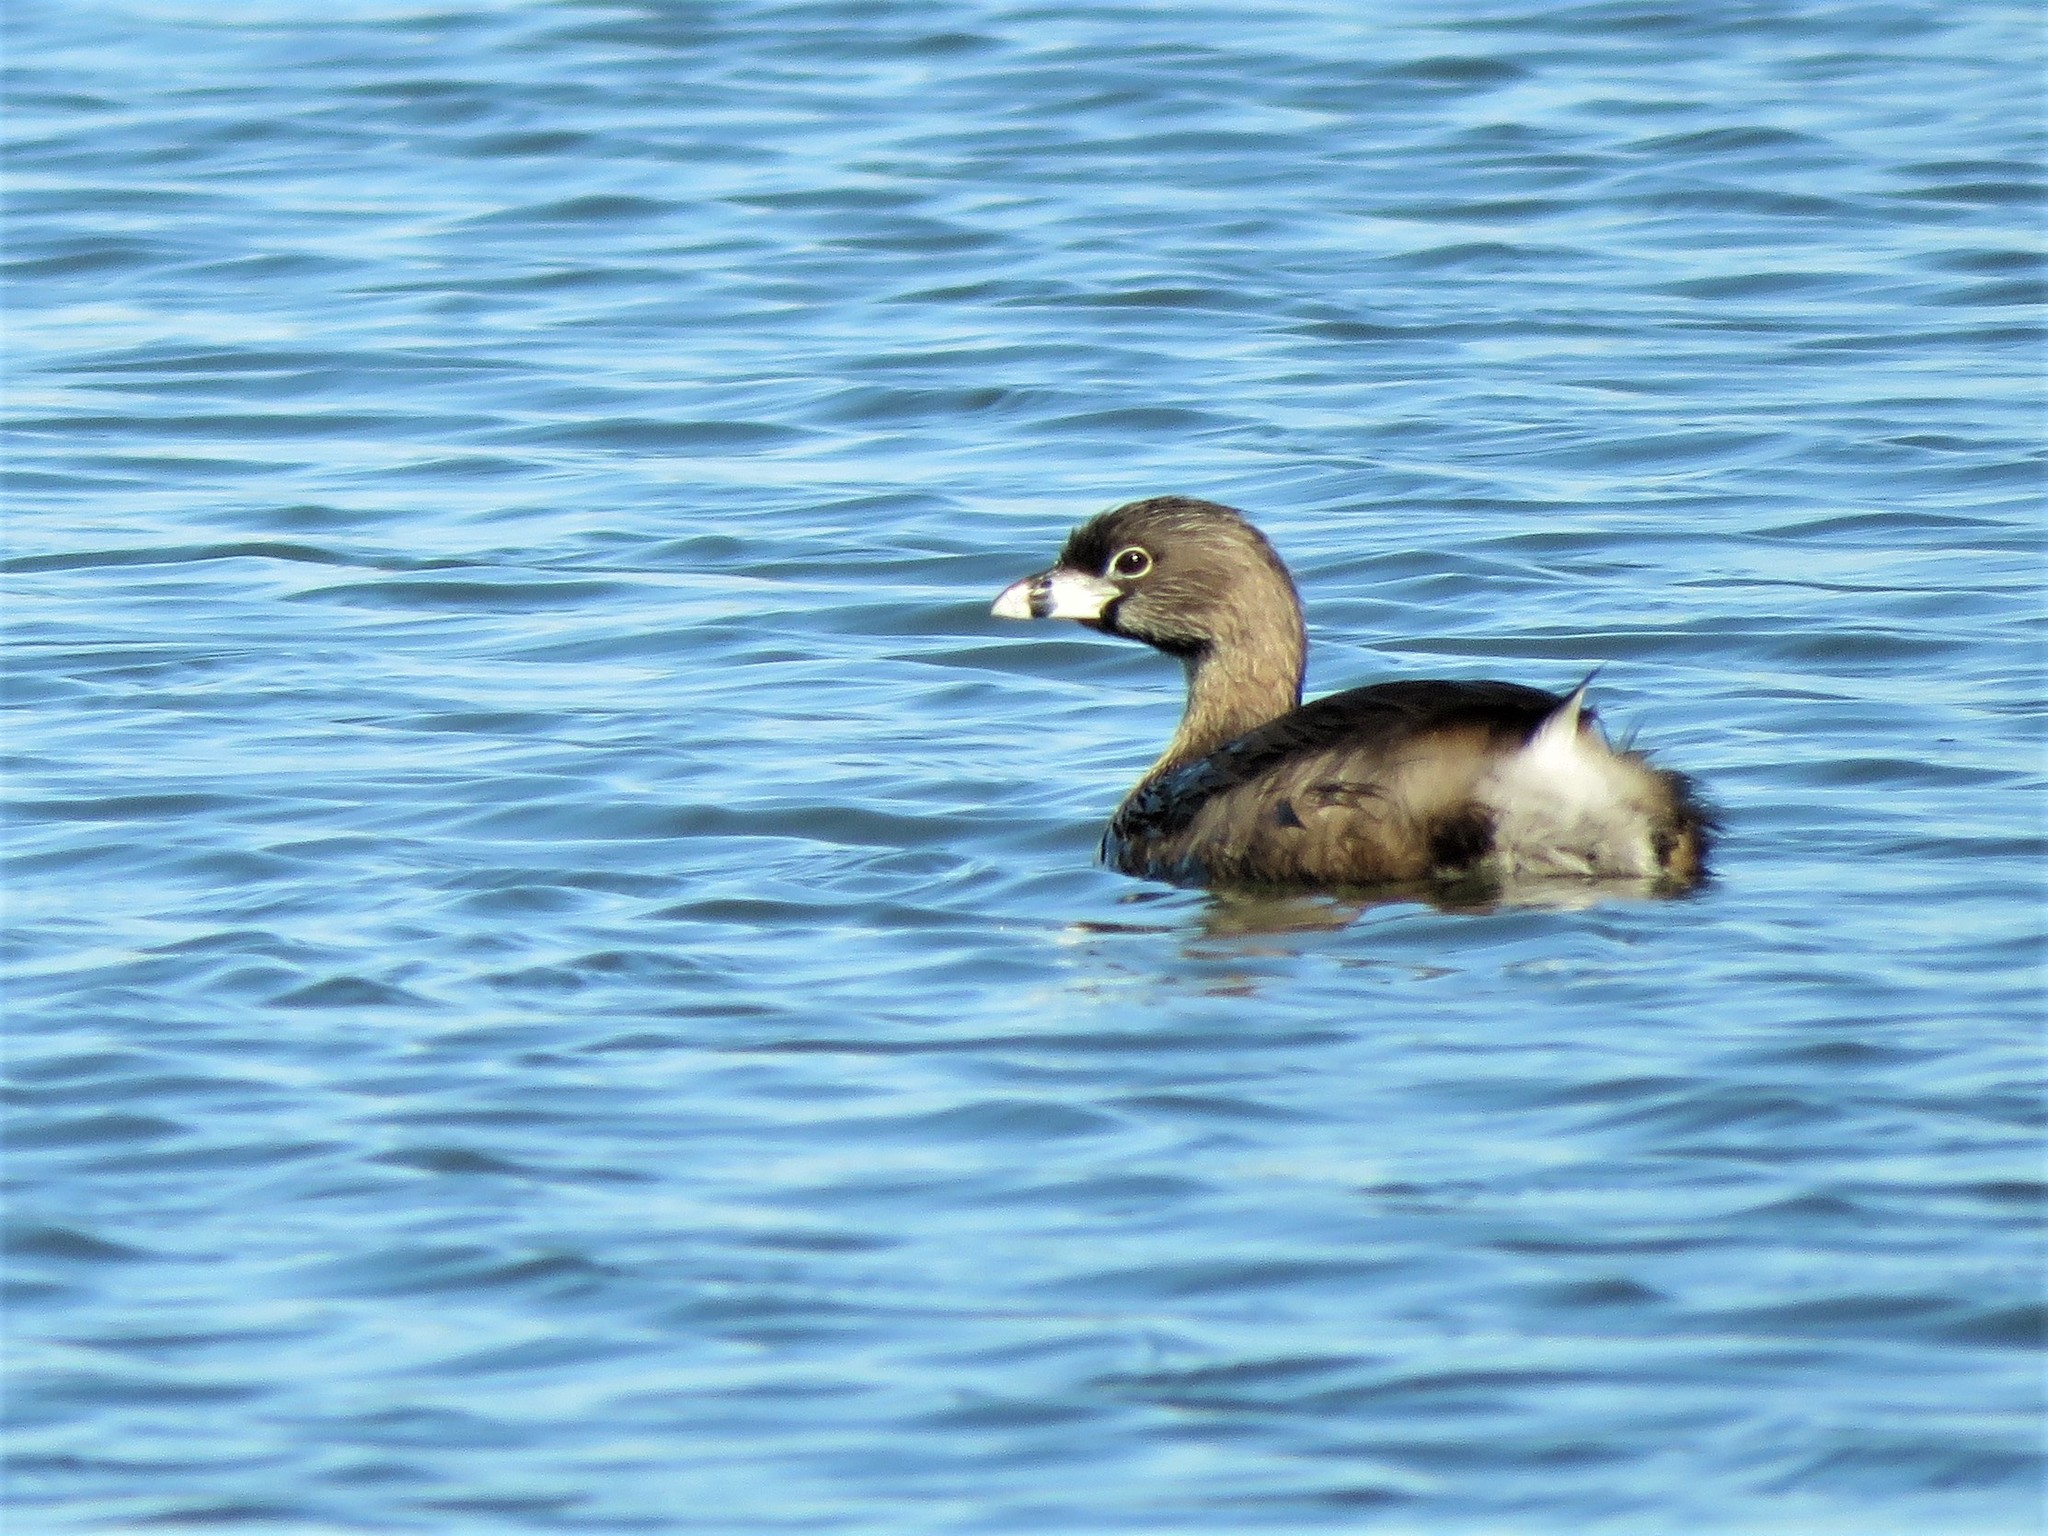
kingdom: Animalia
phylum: Chordata
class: Aves
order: Podicipediformes
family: Podicipedidae
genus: Podilymbus
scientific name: Podilymbus podiceps
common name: Pied-billed grebe
